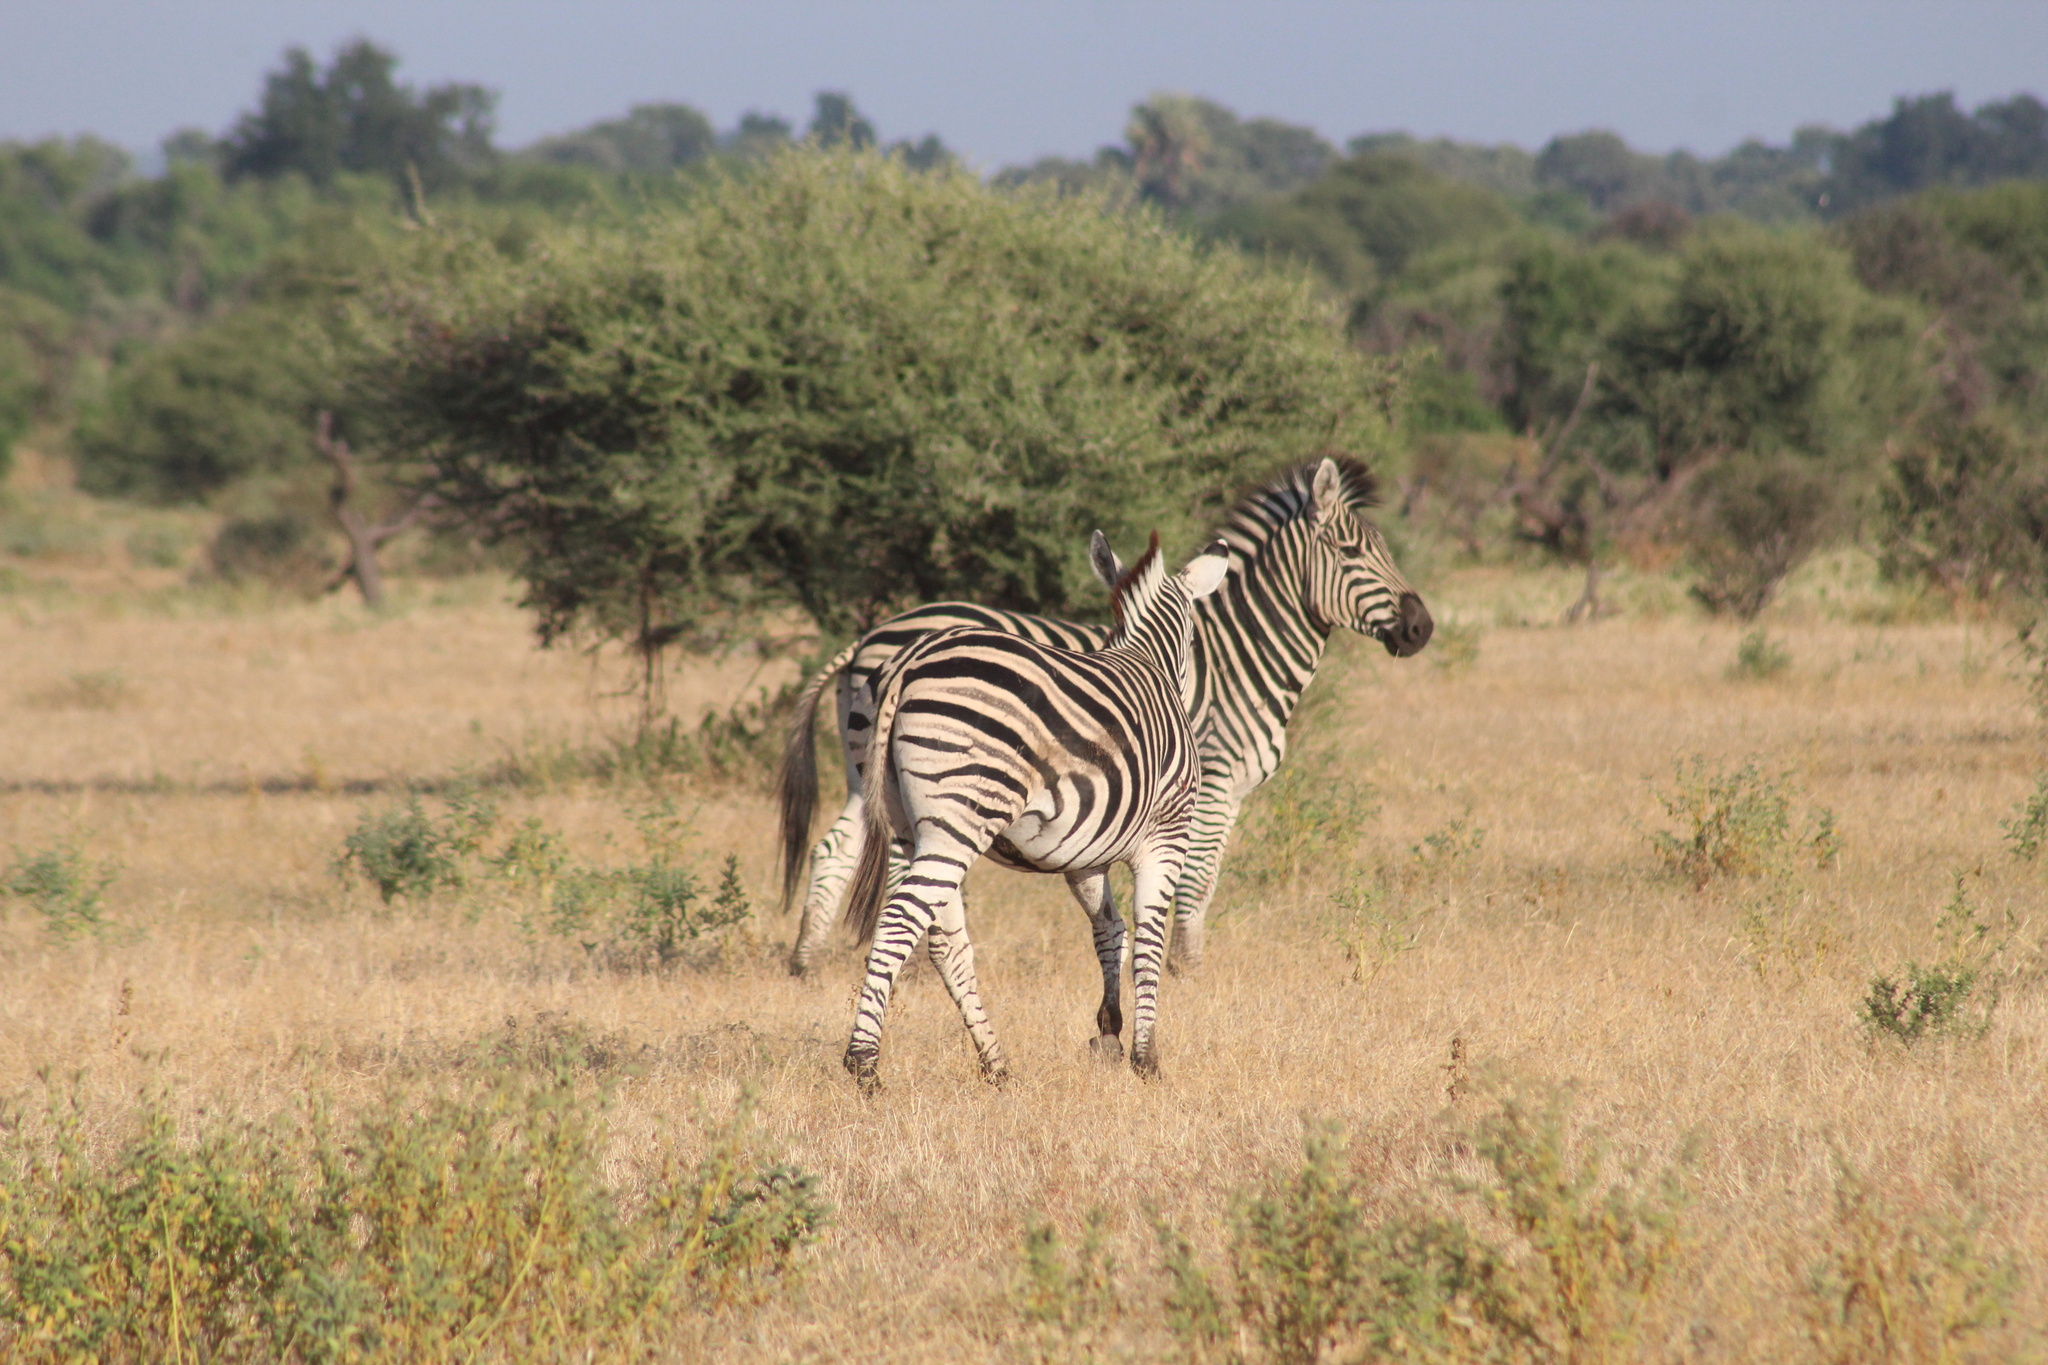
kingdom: Animalia
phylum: Chordata
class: Mammalia
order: Perissodactyla
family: Equidae
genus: Equus
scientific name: Equus quagga
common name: Plains zebra
